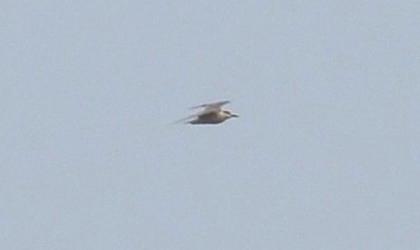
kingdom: Animalia
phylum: Chordata
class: Aves
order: Charadriiformes
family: Laridae
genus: Chlidonias
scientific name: Chlidonias hybrida
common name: Whiskered tern
